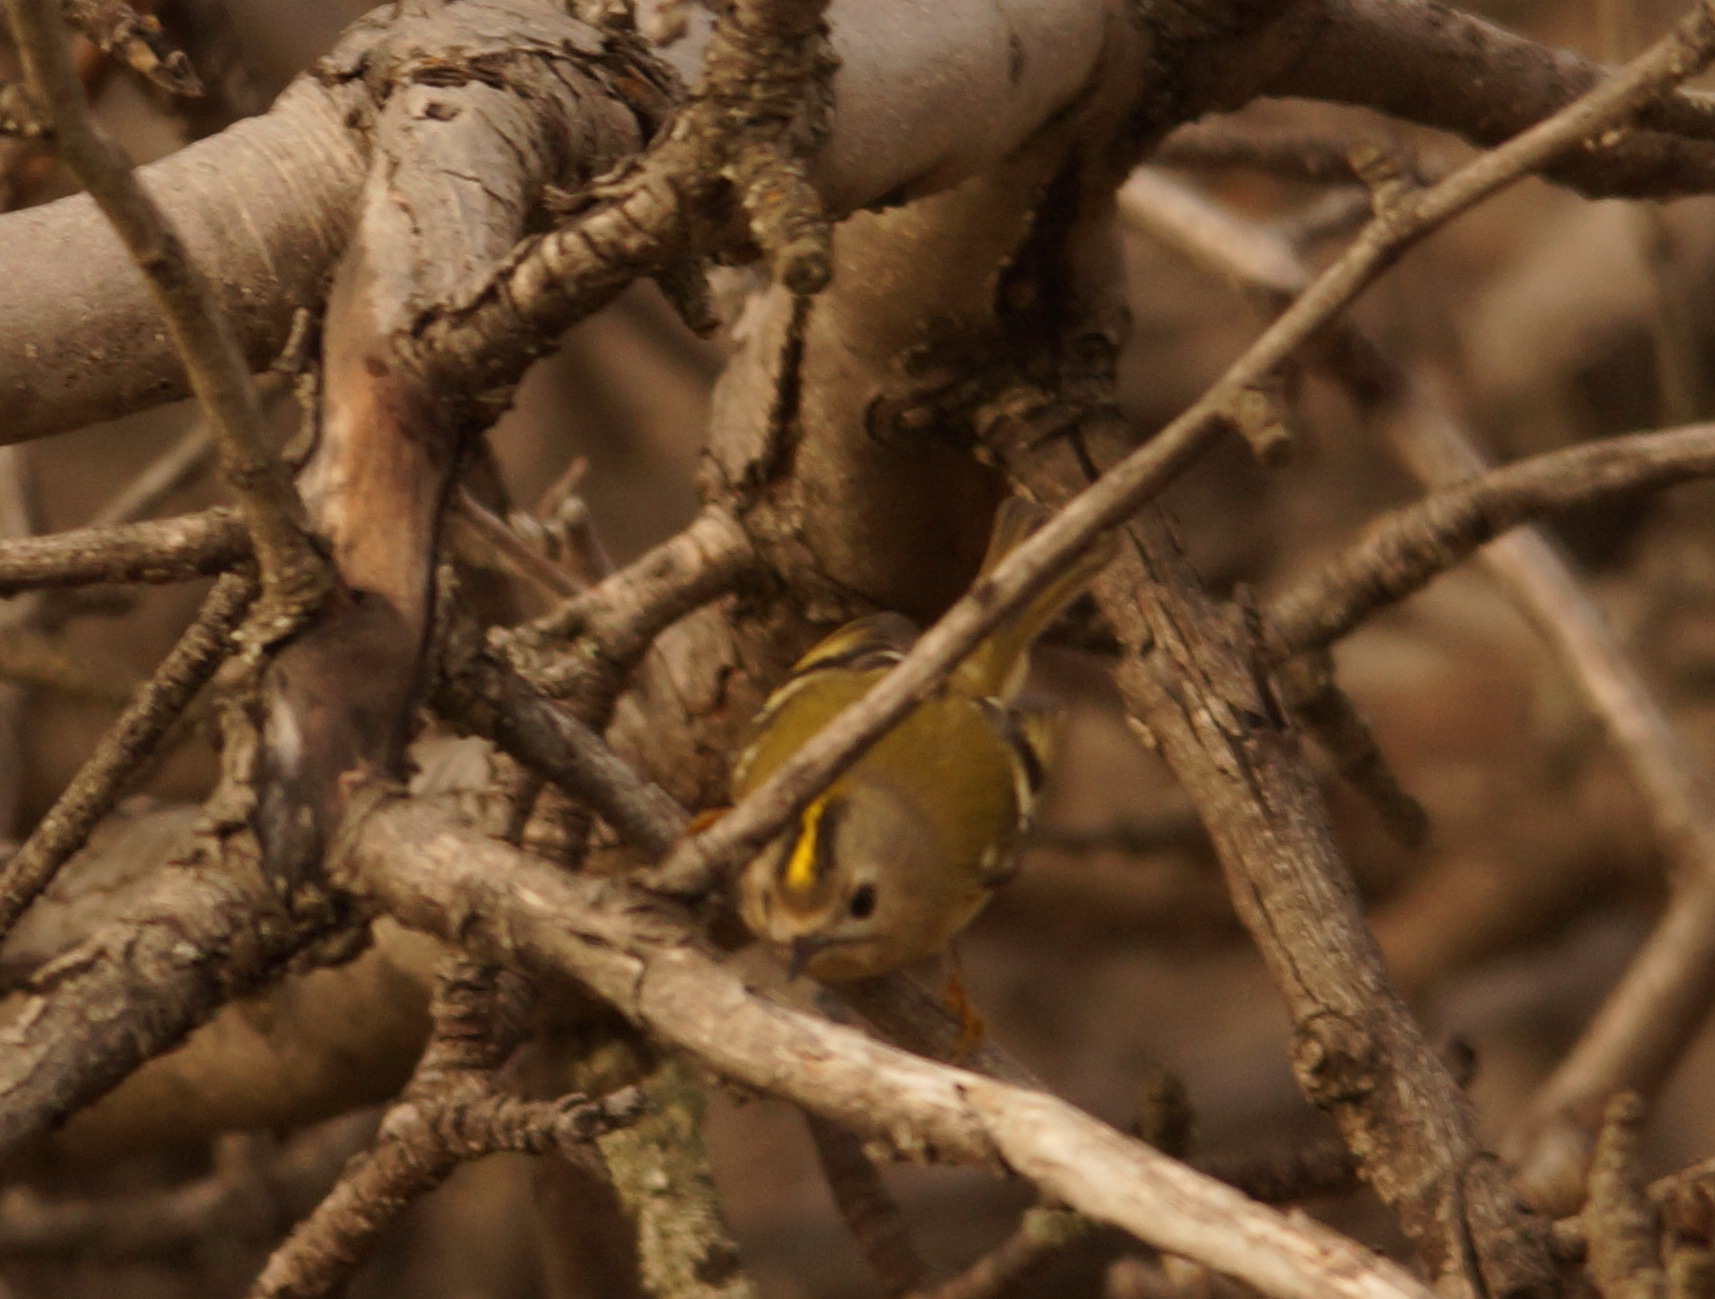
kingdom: Animalia
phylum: Chordata
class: Aves
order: Passeriformes
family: Regulidae
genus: Regulus
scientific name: Regulus regulus
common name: Goldcrest
